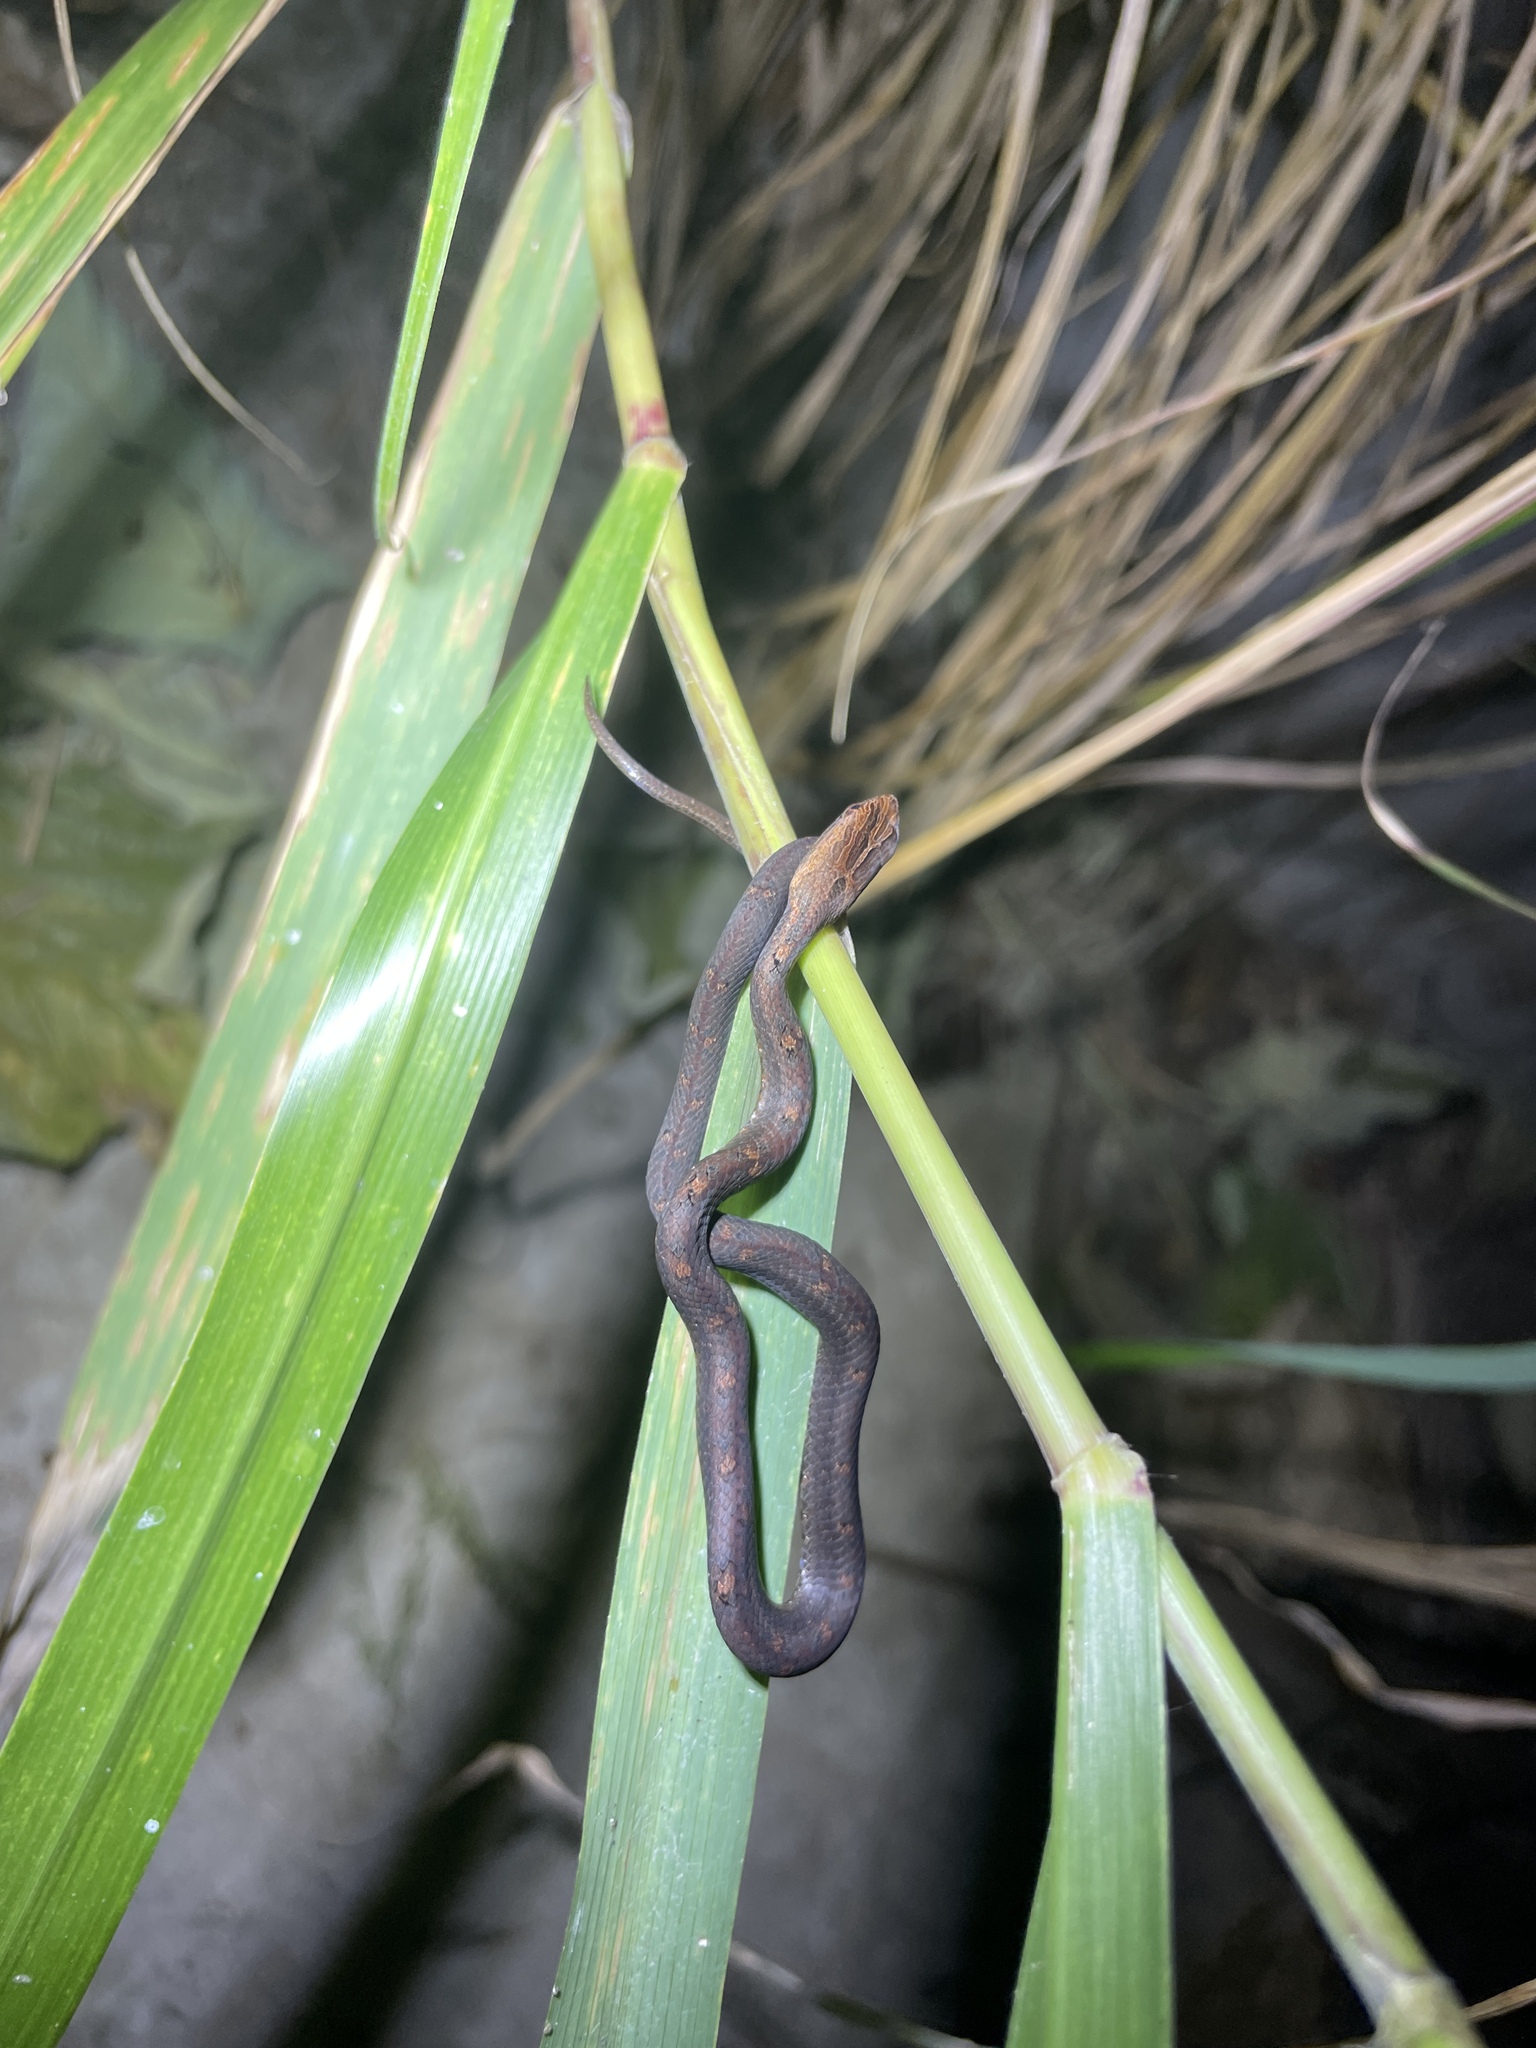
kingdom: Animalia
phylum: Chordata
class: Squamata
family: Pseudaspididae
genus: Psammodynastes
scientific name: Psammodynastes pulverulentus
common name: Common mock viper
